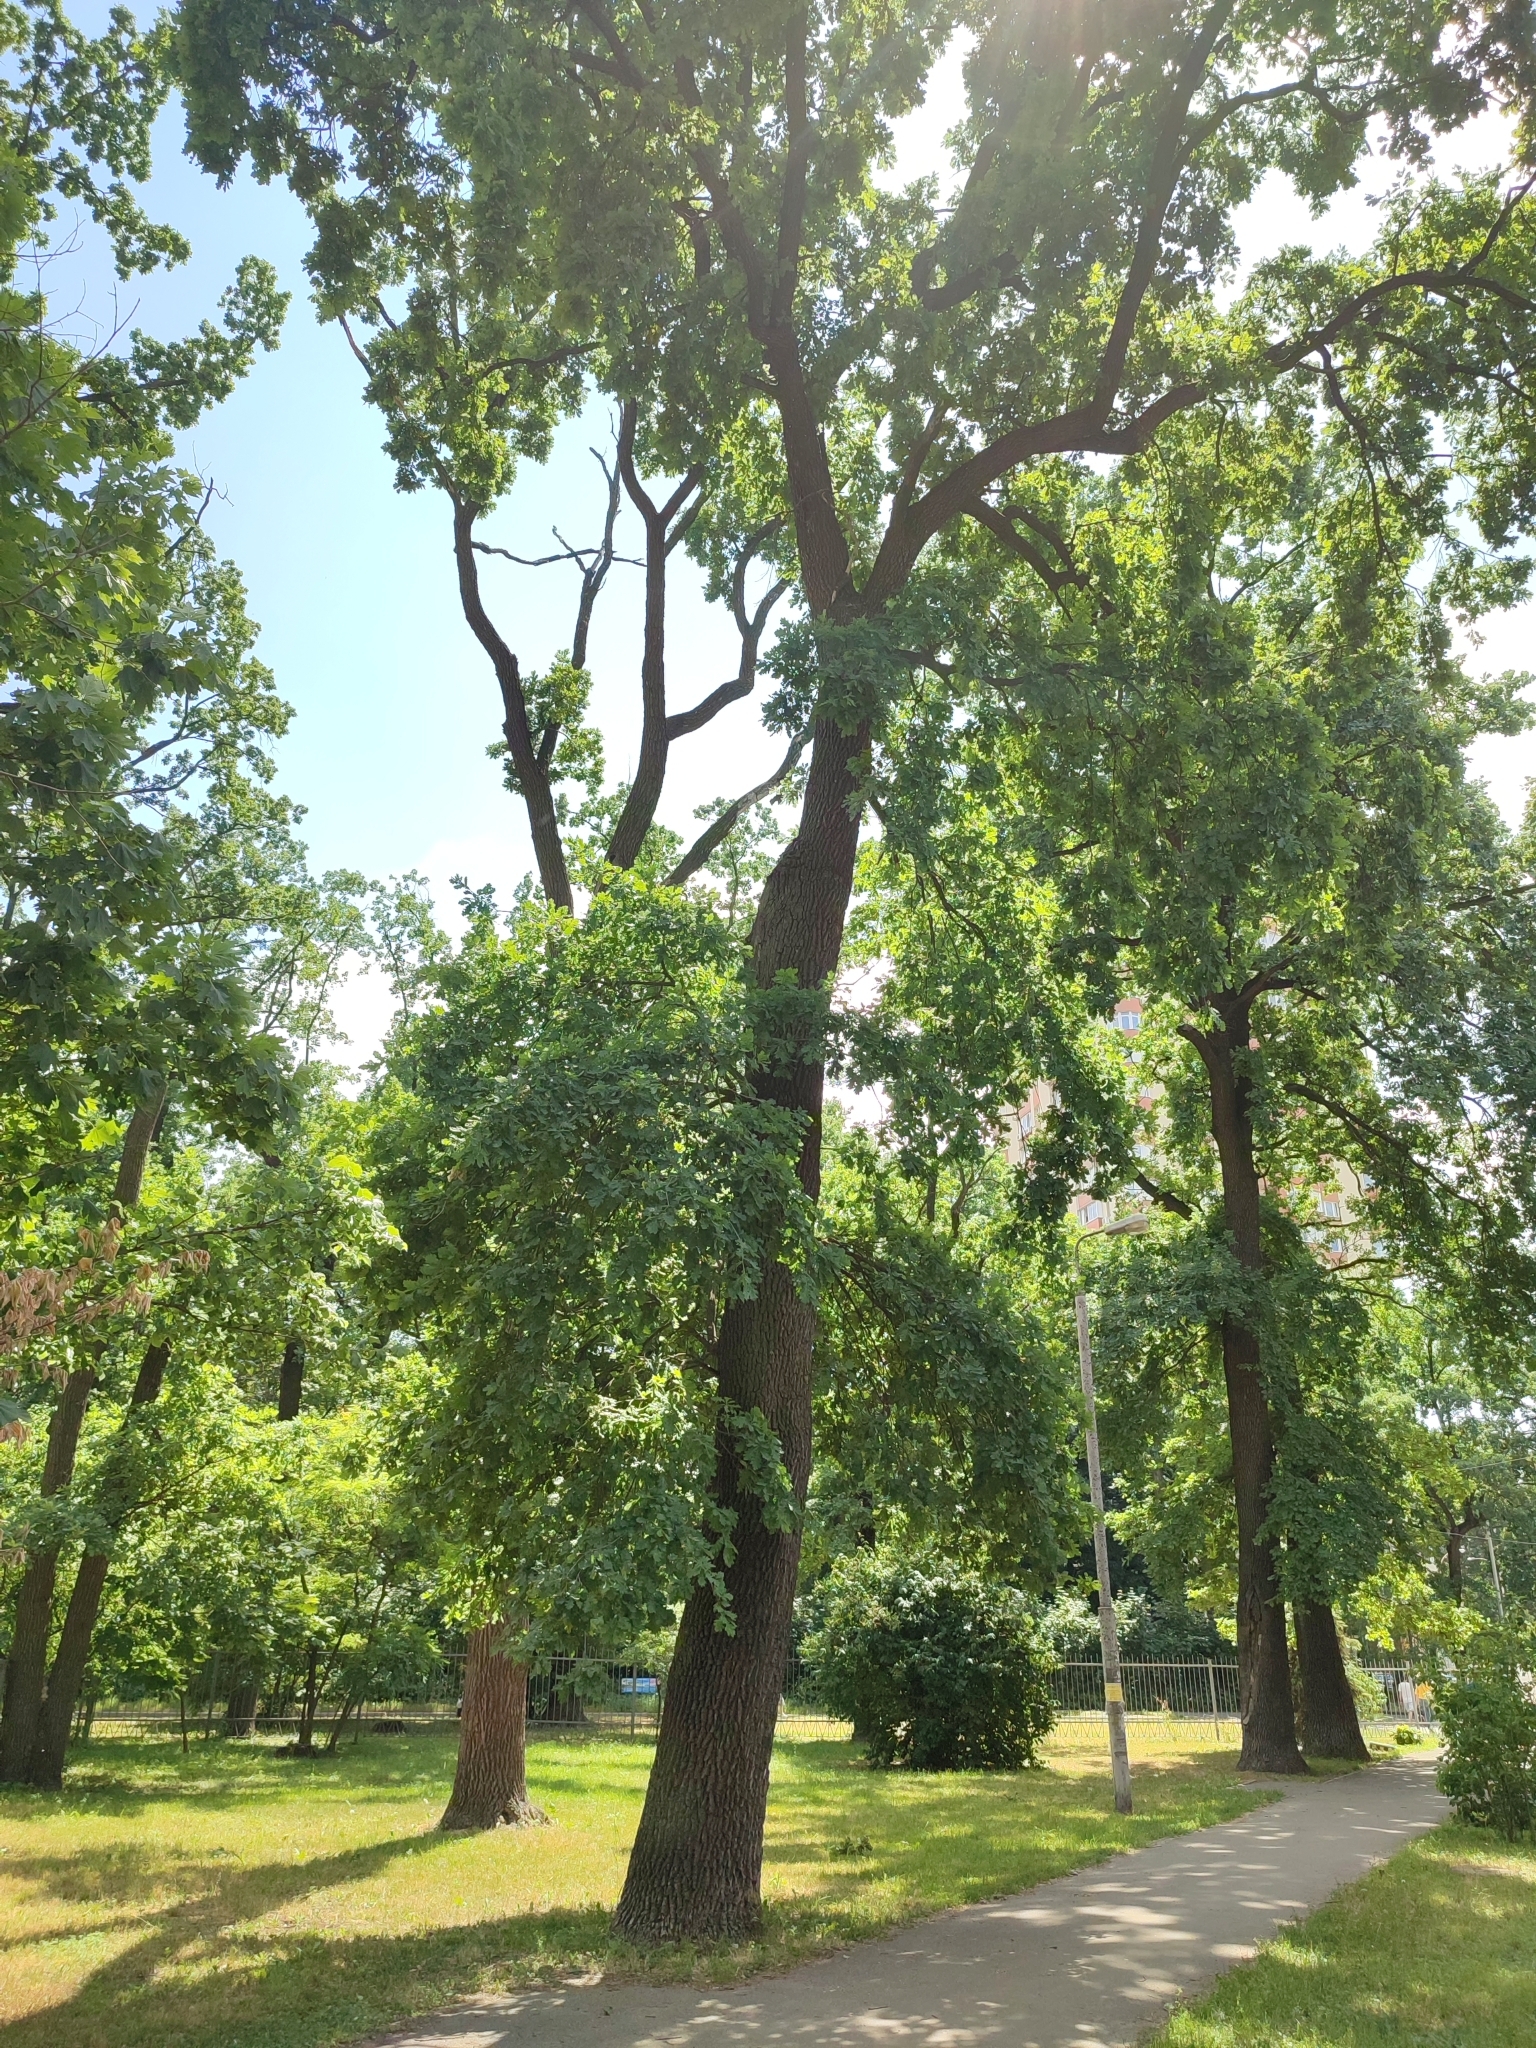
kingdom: Plantae
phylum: Tracheophyta
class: Magnoliopsida
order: Fagales
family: Fagaceae
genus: Quercus
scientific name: Quercus robur
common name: Pedunculate oak
